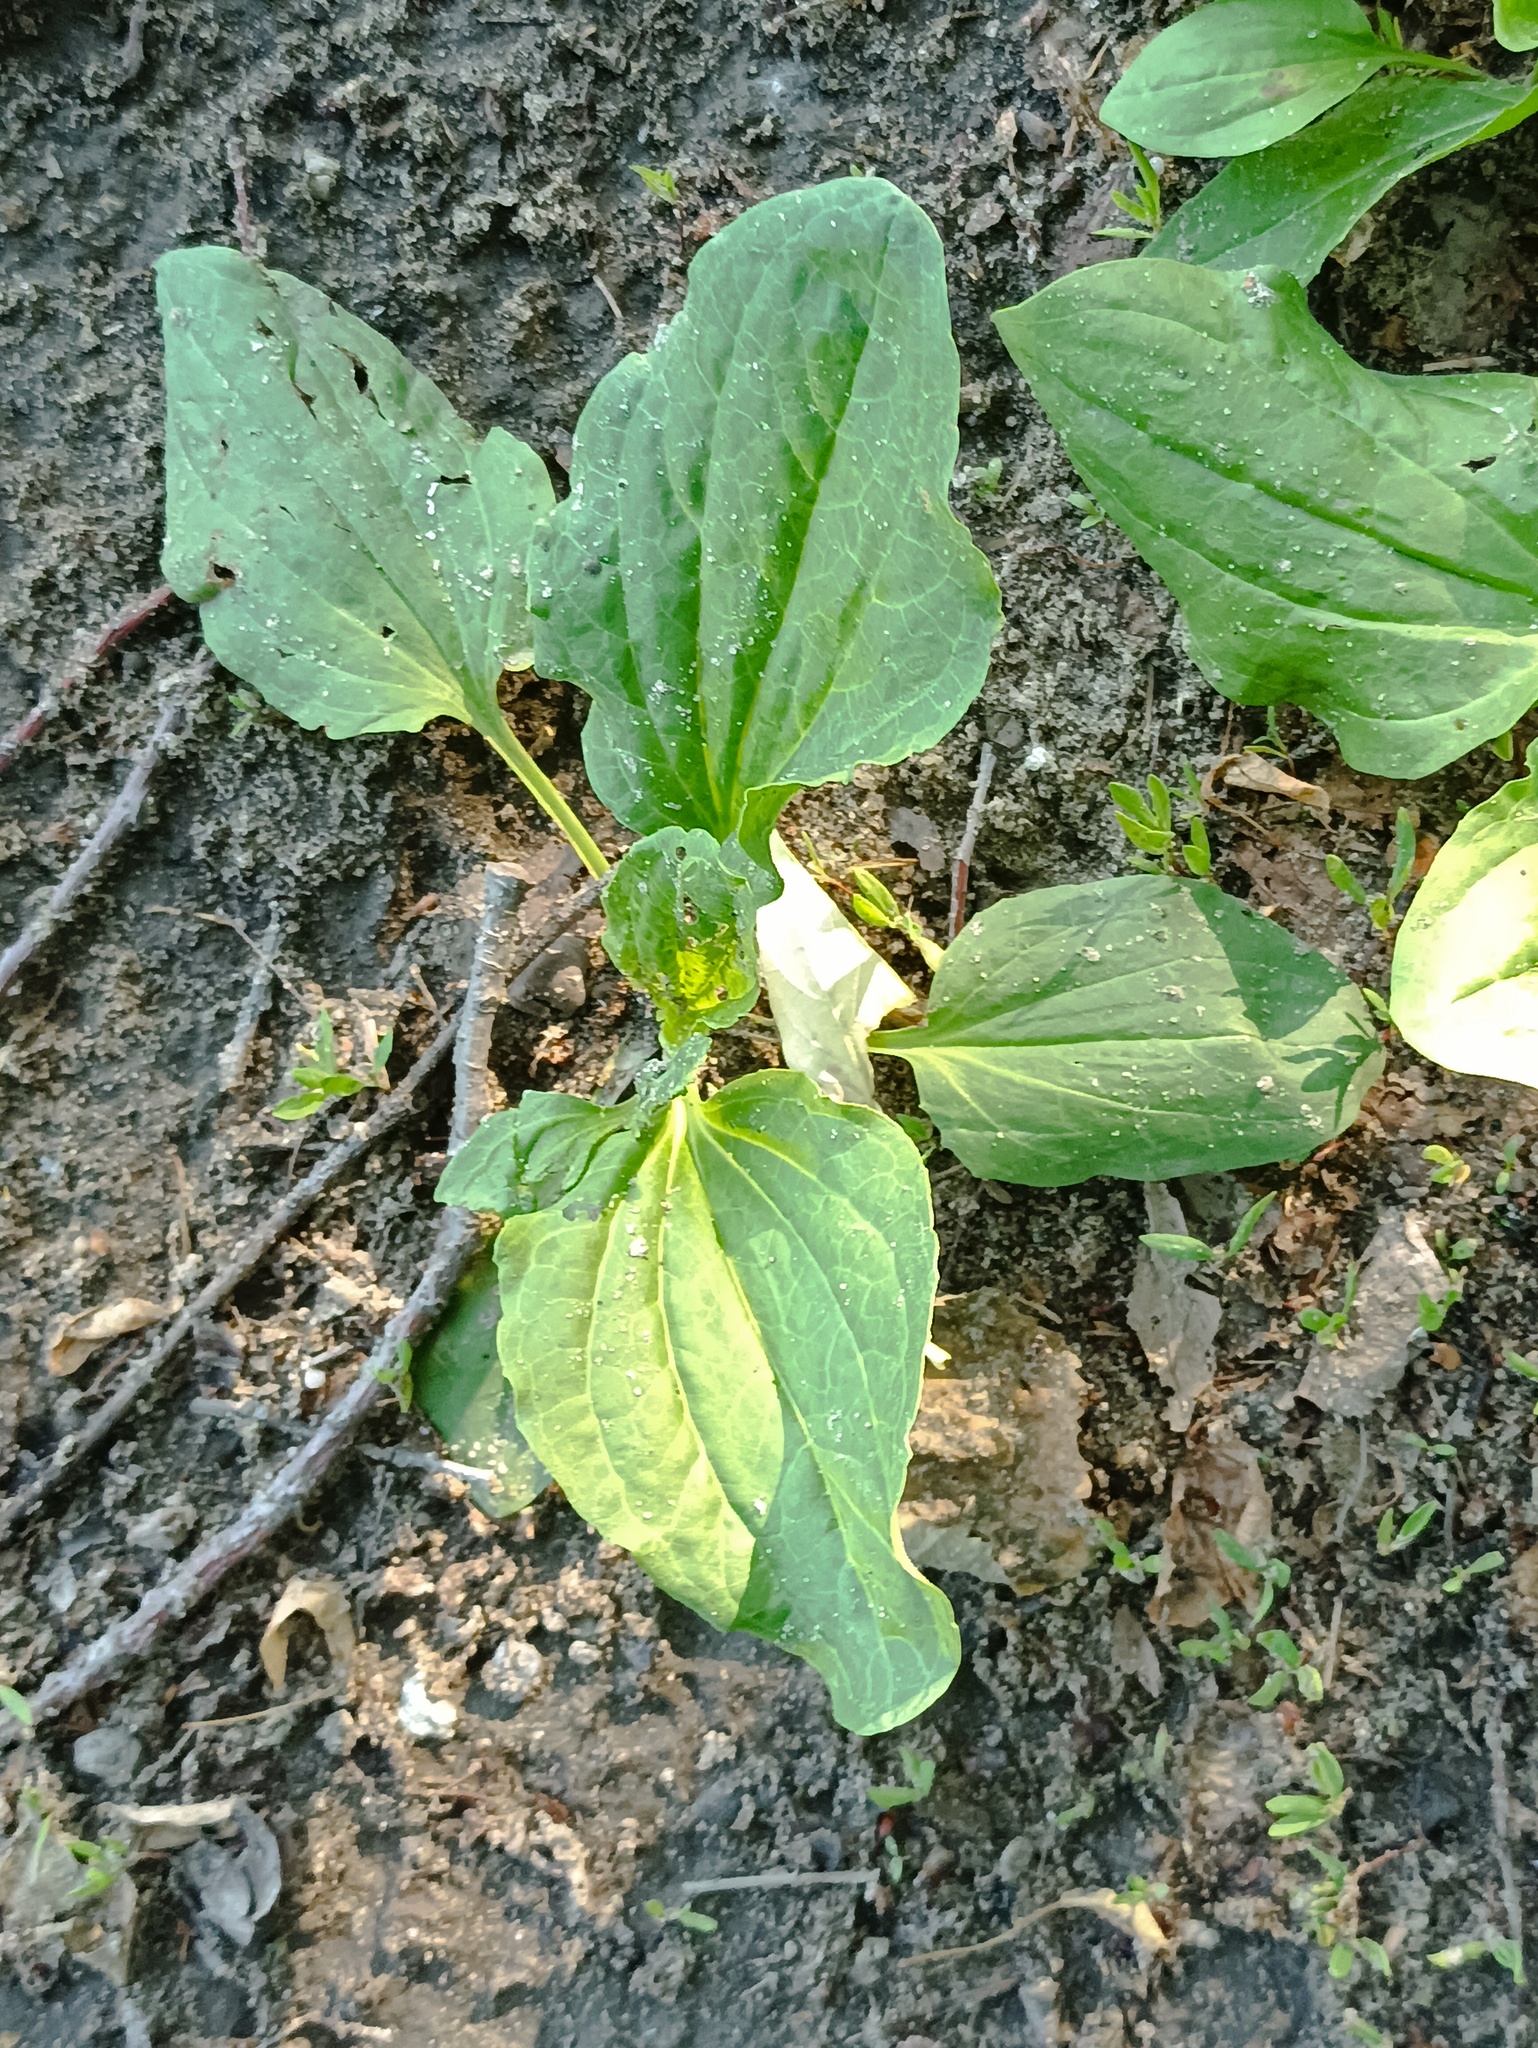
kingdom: Plantae
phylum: Tracheophyta
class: Magnoliopsida
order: Lamiales
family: Plantaginaceae
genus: Plantago
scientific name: Plantago major
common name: Common plantain
